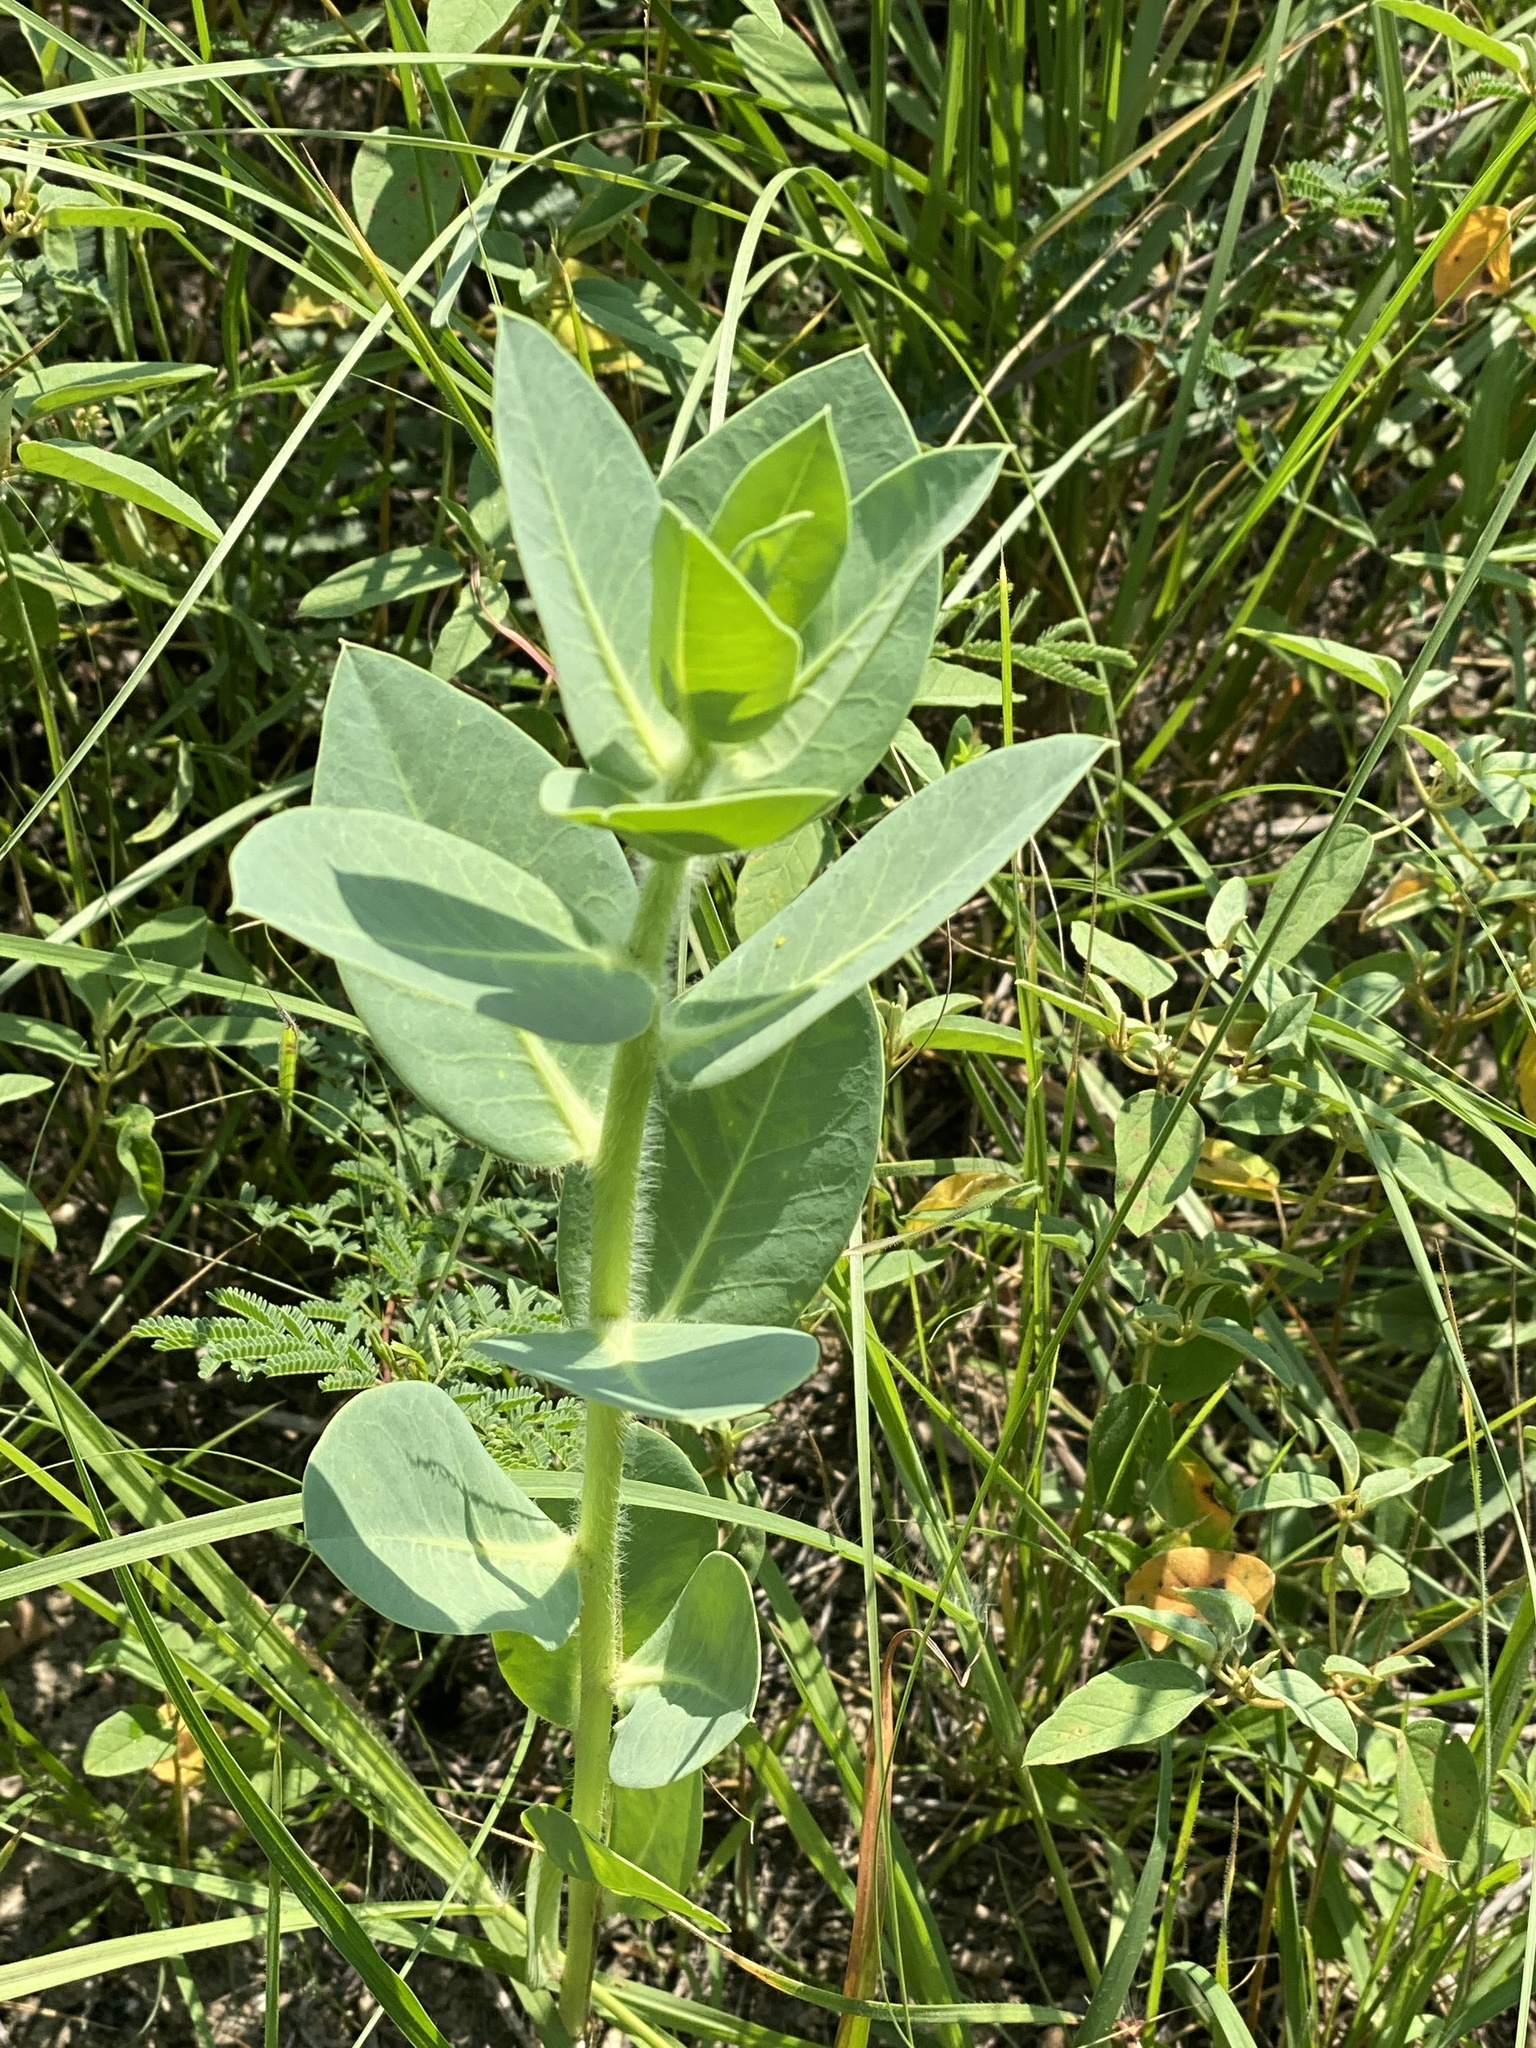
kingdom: Plantae
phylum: Tracheophyta
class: Magnoliopsida
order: Malpighiales
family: Euphorbiaceae
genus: Euphorbia
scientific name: Euphorbia marginata
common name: Ghostweed
